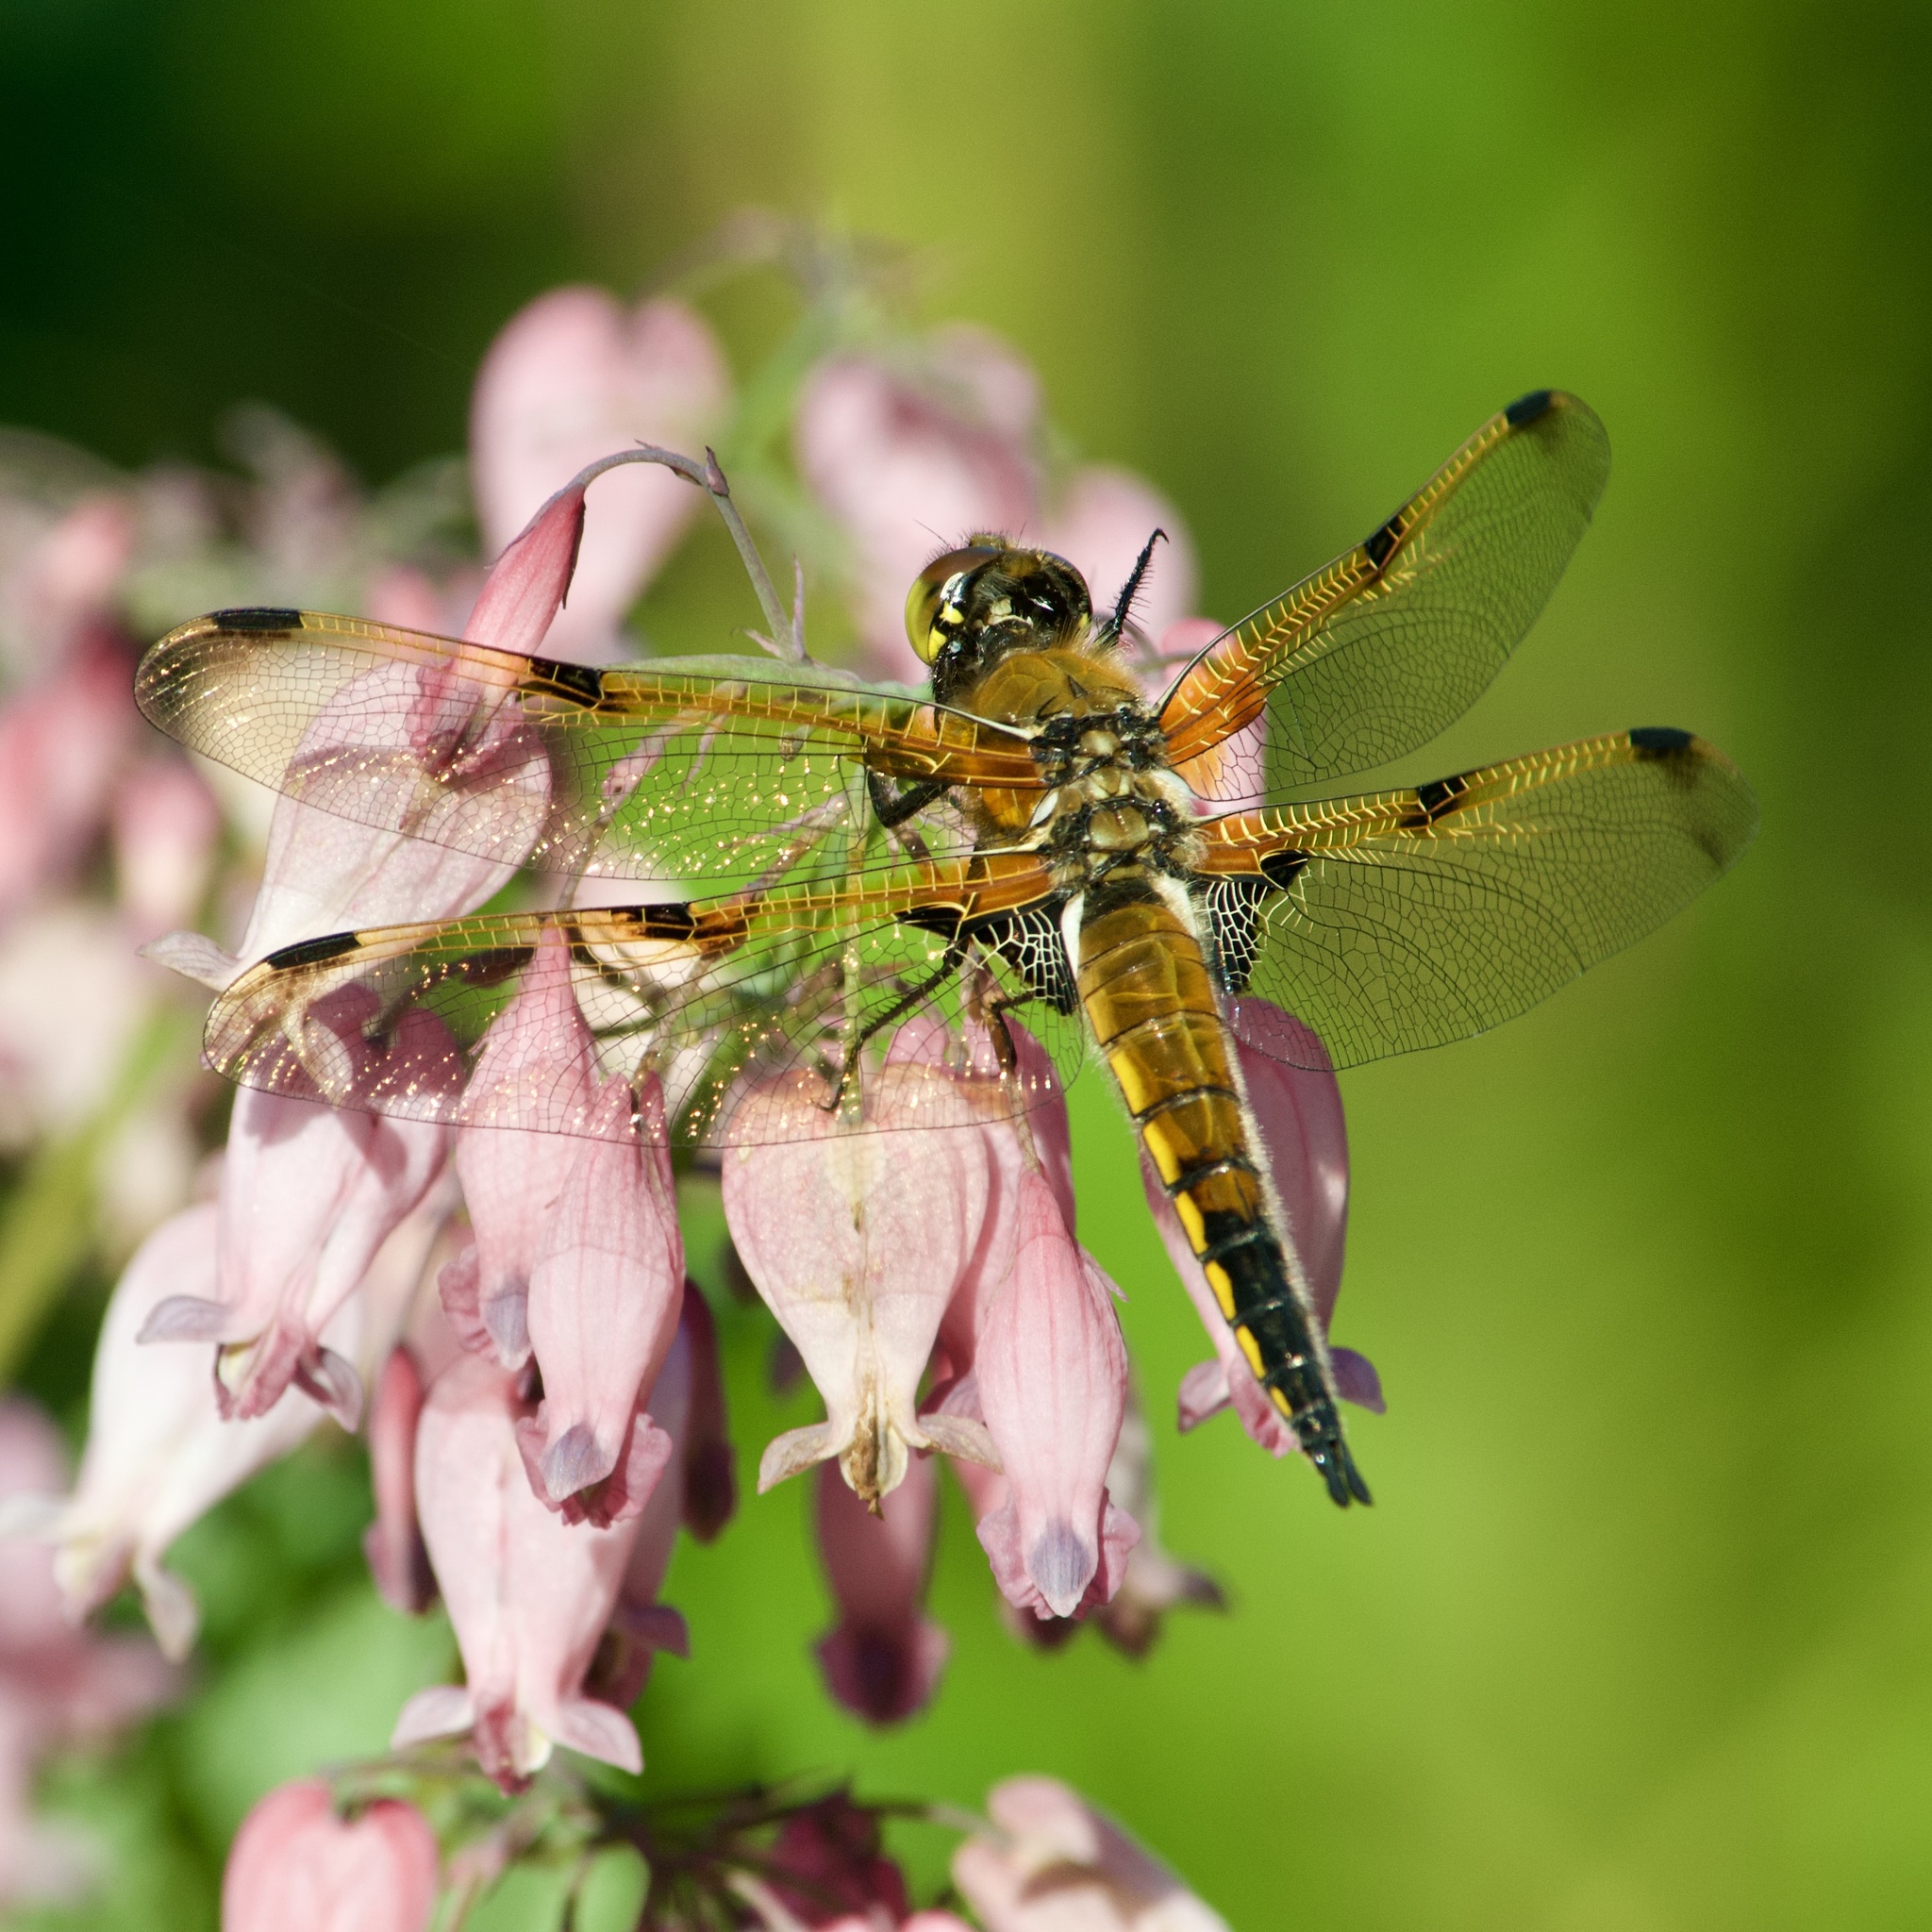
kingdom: Animalia
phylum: Arthropoda
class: Insecta
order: Odonata
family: Libellulidae
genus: Libellula
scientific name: Libellula quadrimaculata
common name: Four-spotted chaser
